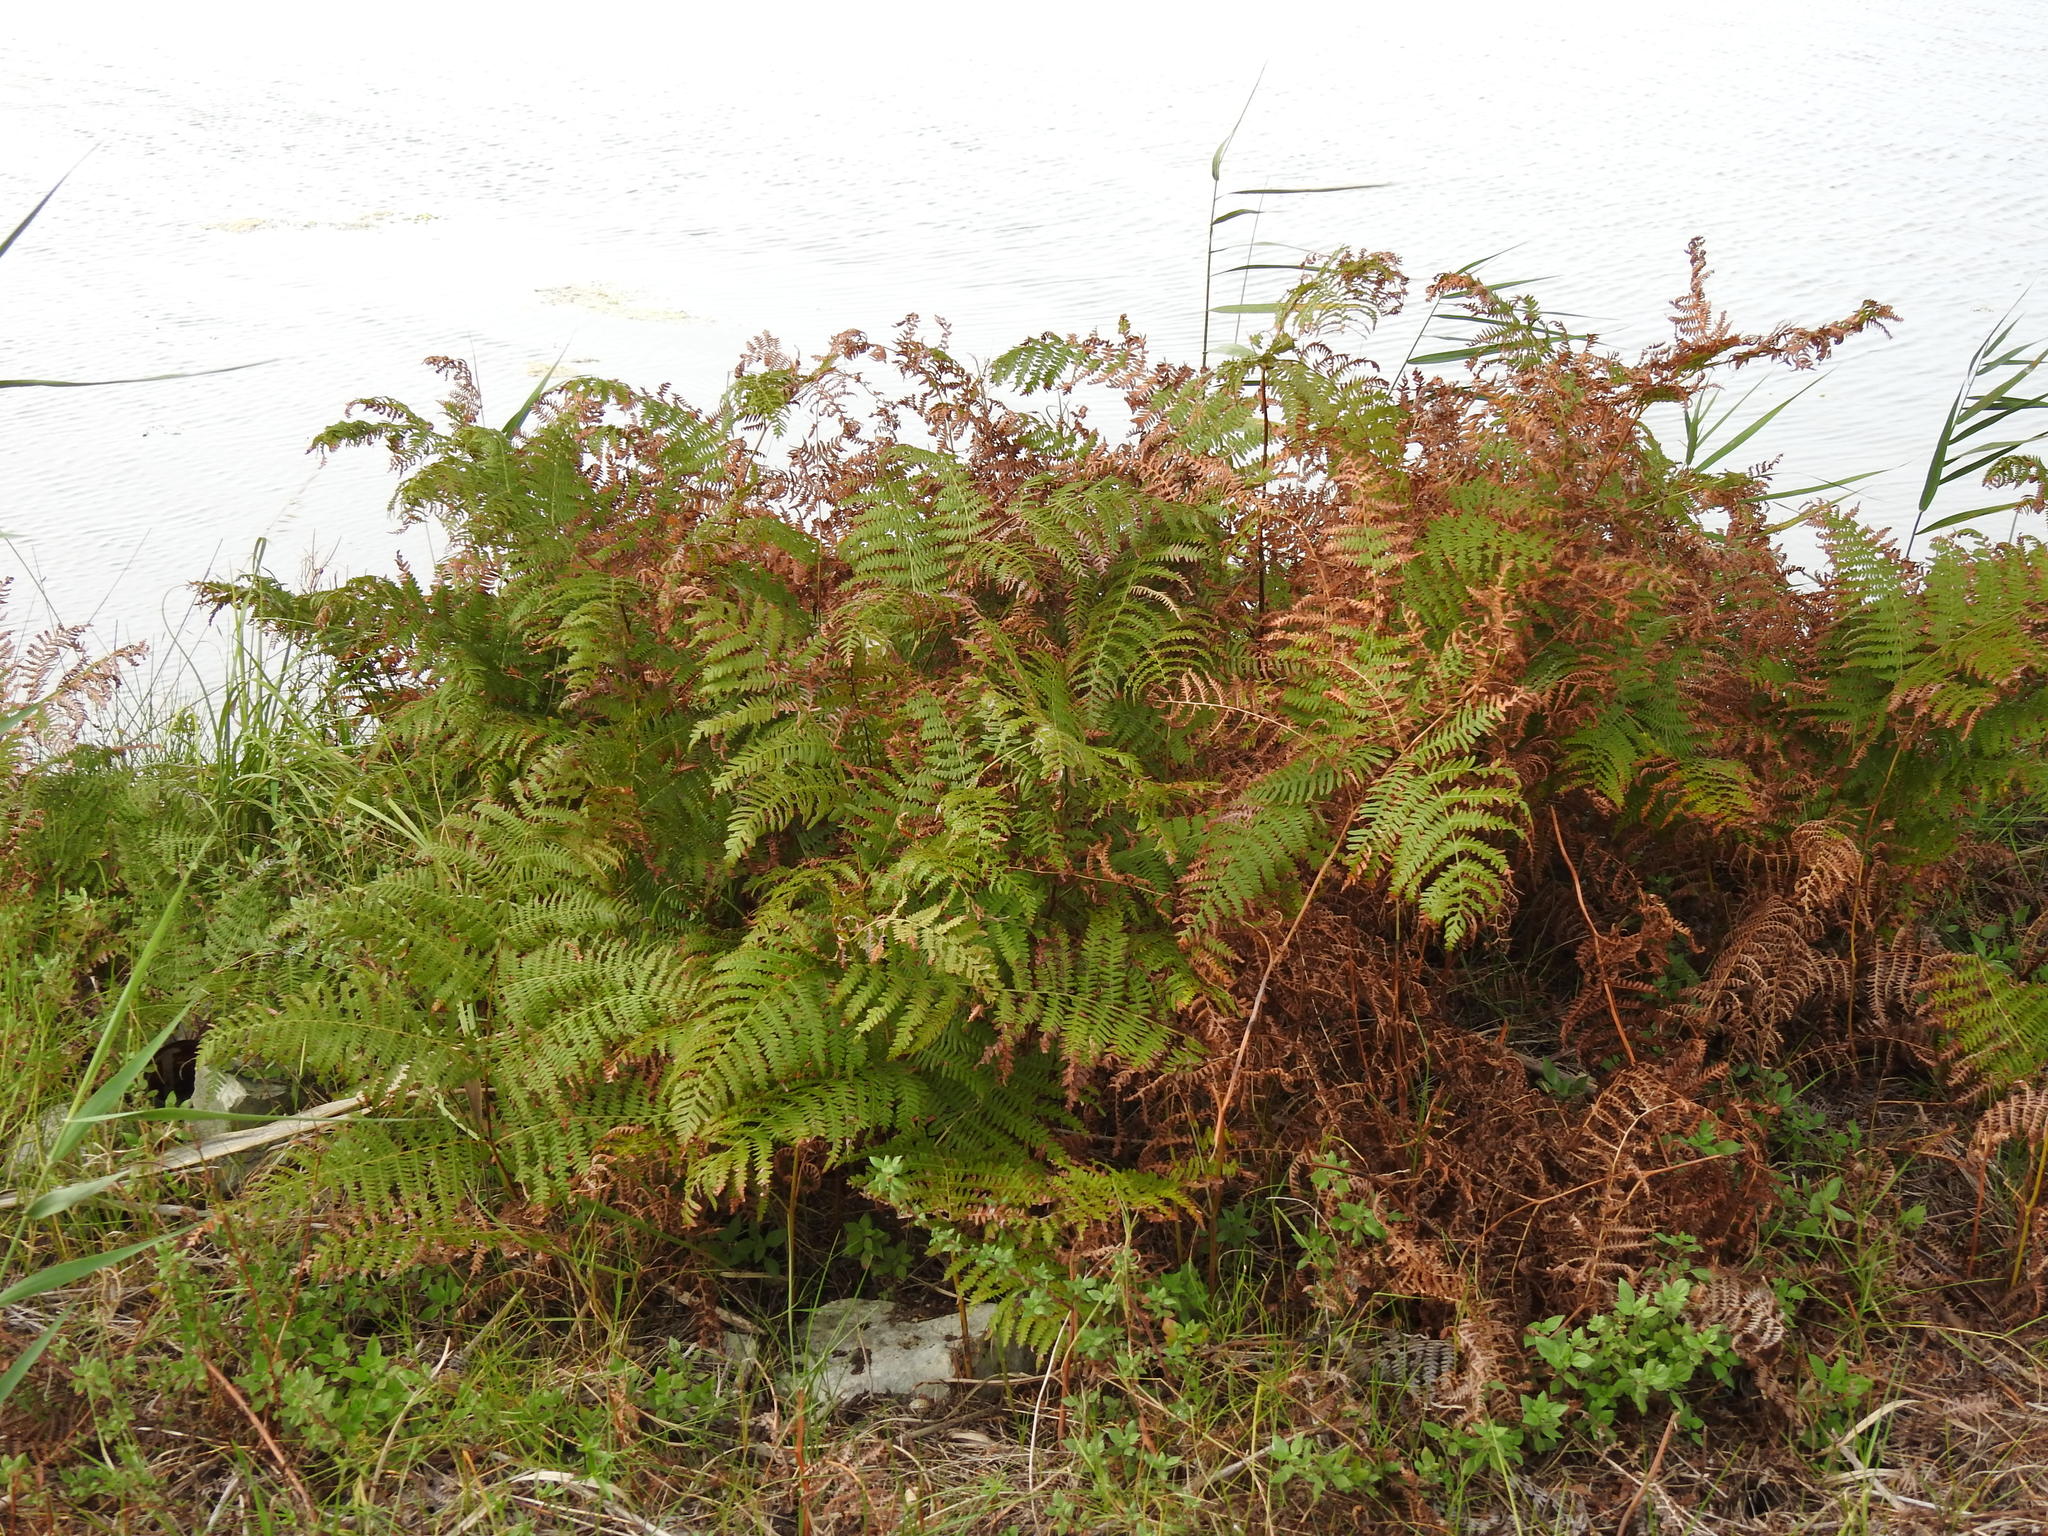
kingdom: Plantae
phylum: Tracheophyta
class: Polypodiopsida
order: Polypodiales
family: Dennstaedtiaceae
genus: Pteridium
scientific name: Pteridium aquilinum
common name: Bracken
